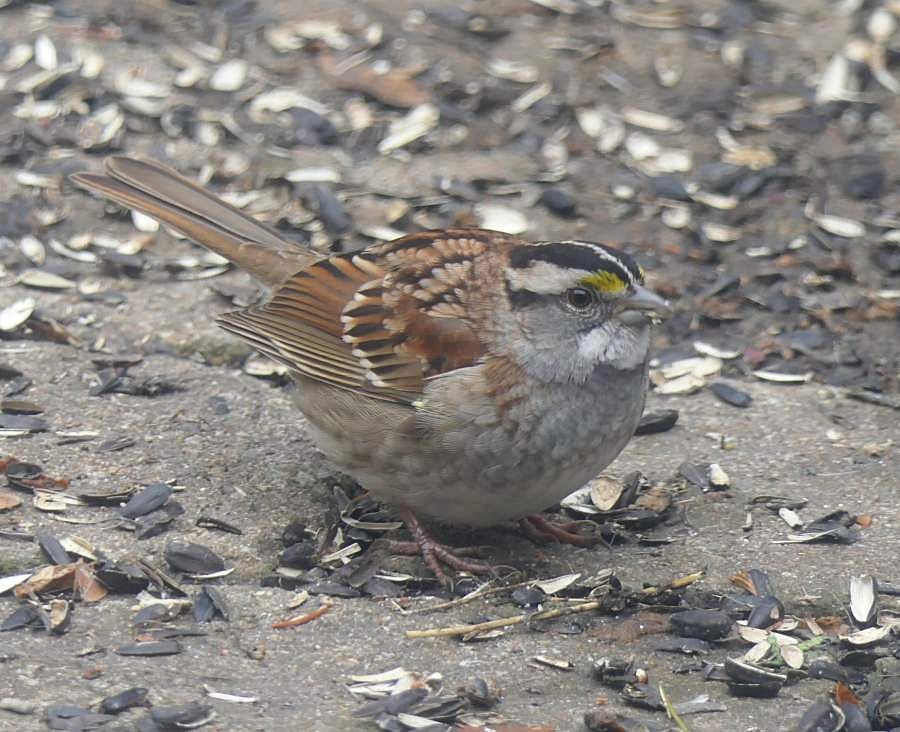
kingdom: Animalia
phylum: Chordata
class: Aves
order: Passeriformes
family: Passerellidae
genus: Zonotrichia
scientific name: Zonotrichia albicollis
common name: White-throated sparrow
